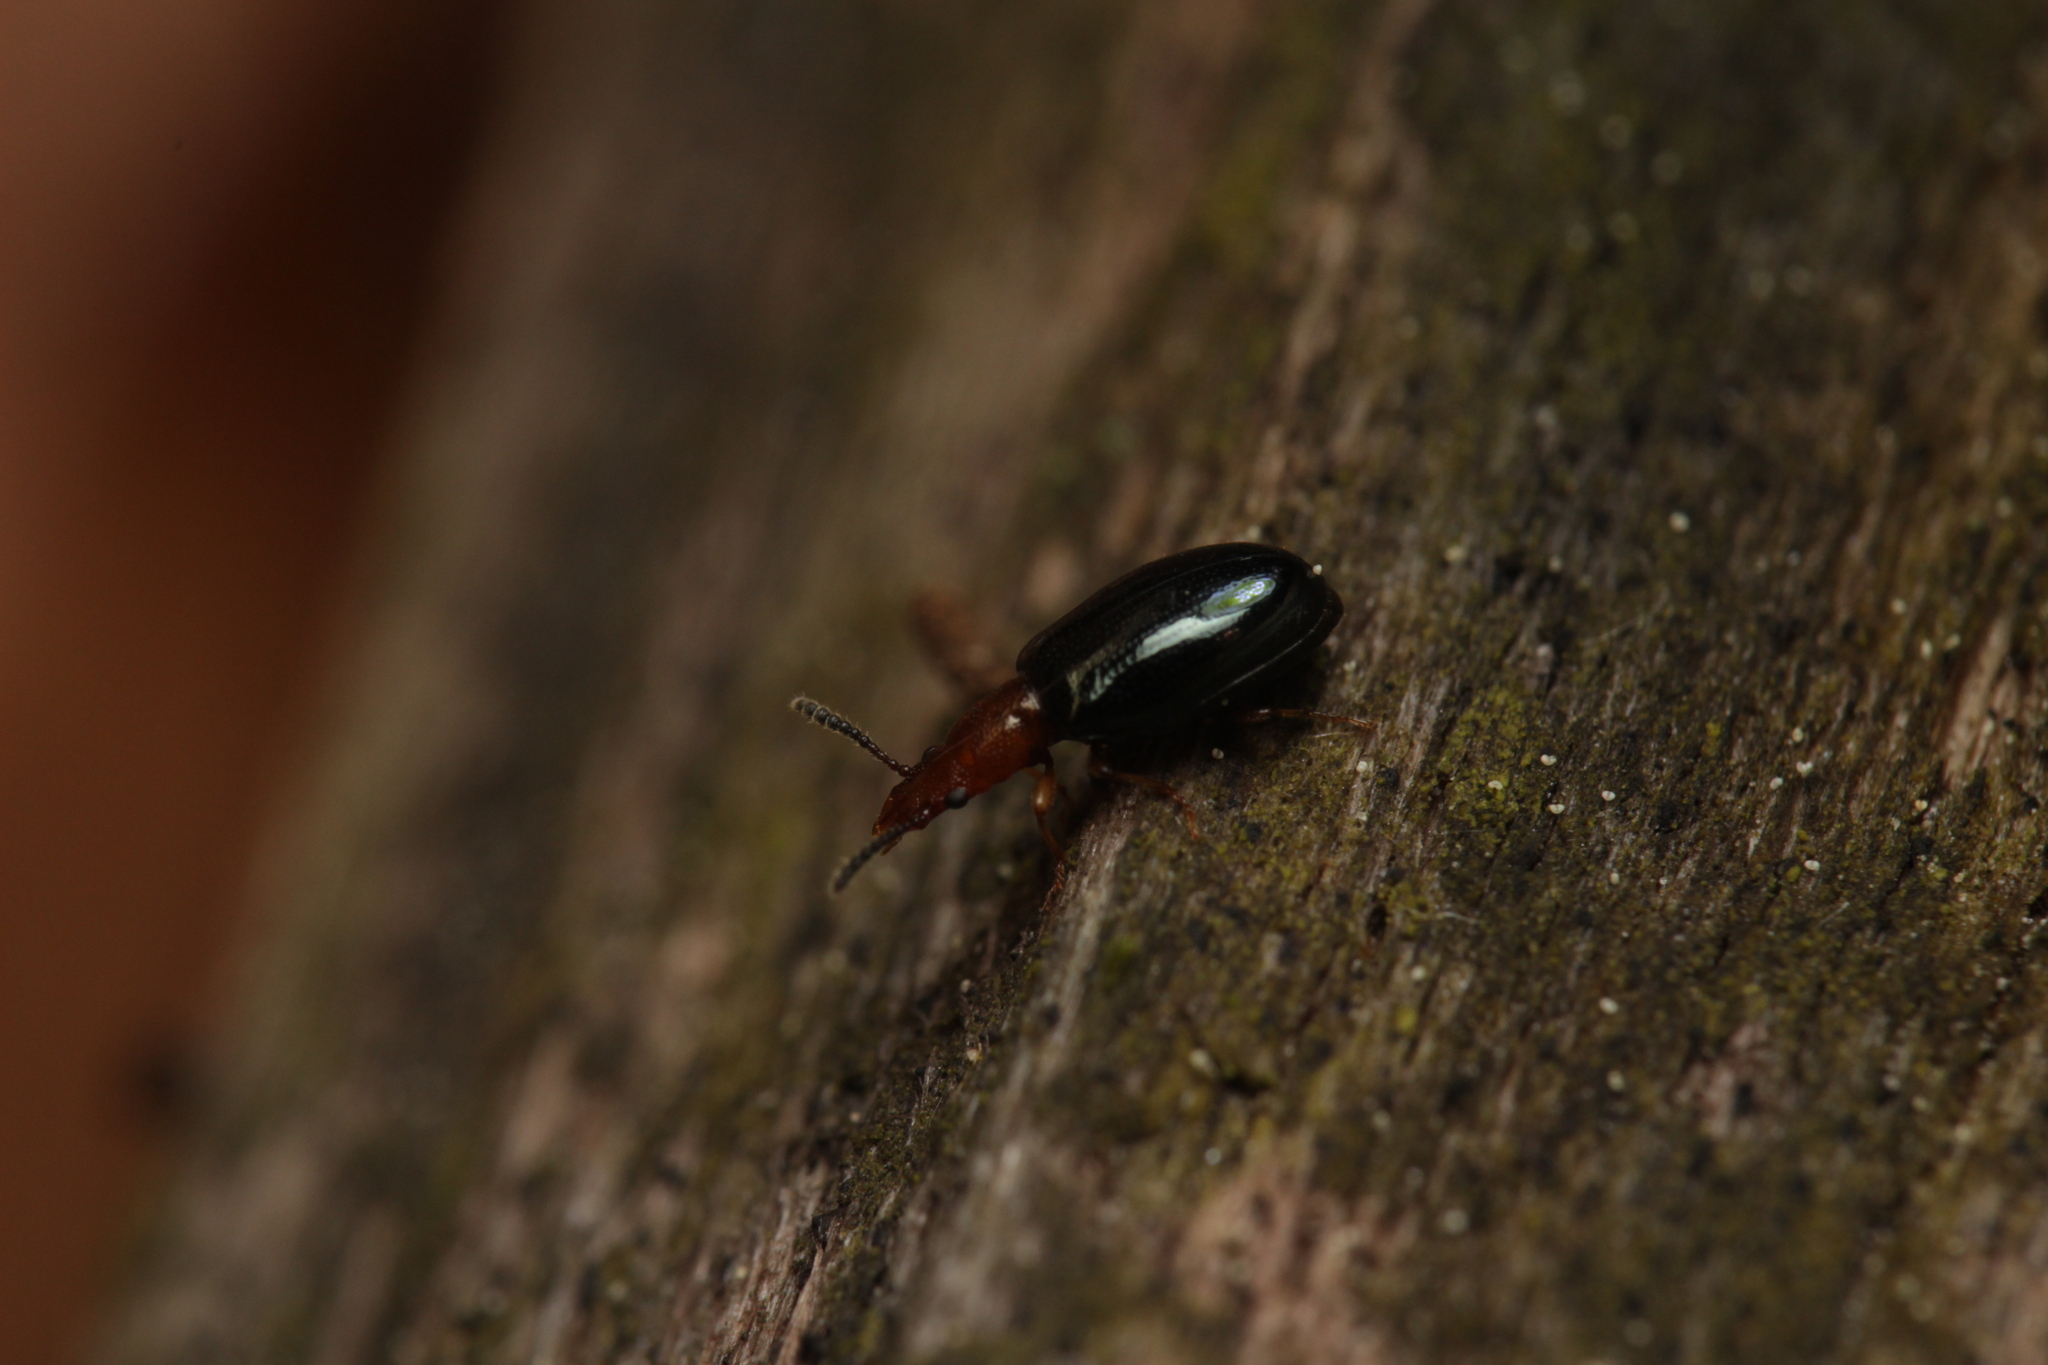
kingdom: Animalia
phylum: Arthropoda
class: Insecta
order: Coleoptera
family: Salpingidae
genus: Vincenzellus
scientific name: Vincenzellus ruficollis
